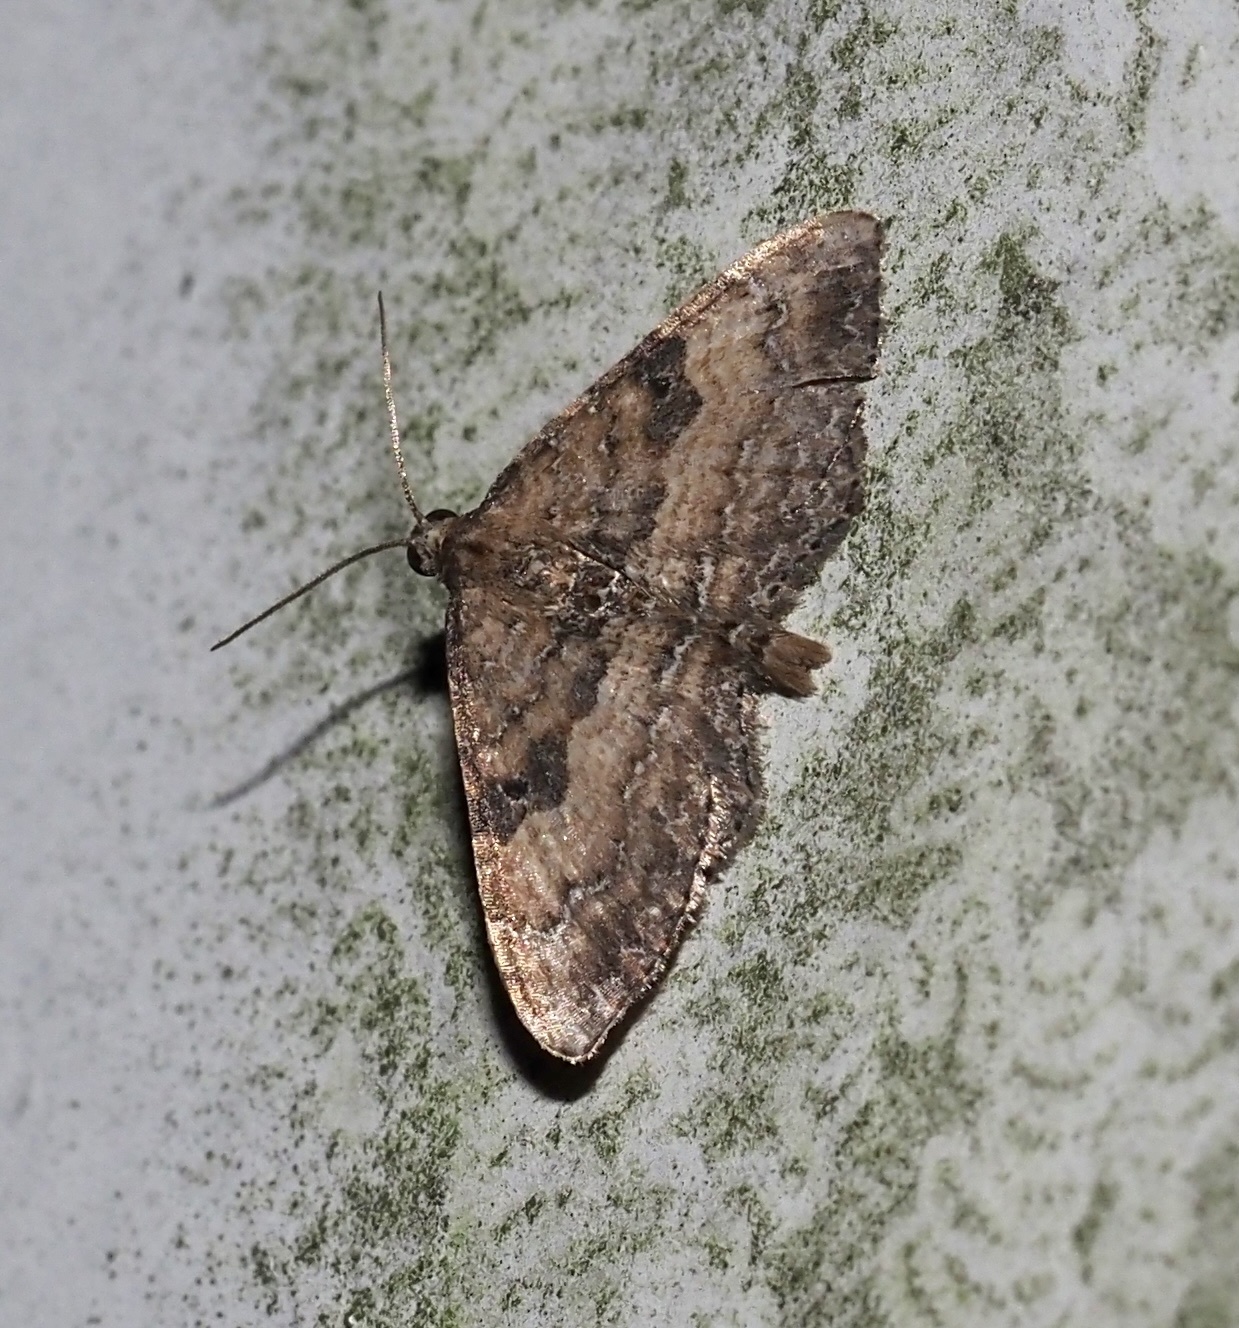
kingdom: Animalia
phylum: Arthropoda
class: Insecta
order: Lepidoptera
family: Geometridae
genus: Orthonama
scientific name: Orthonama obstipata
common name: The gem
